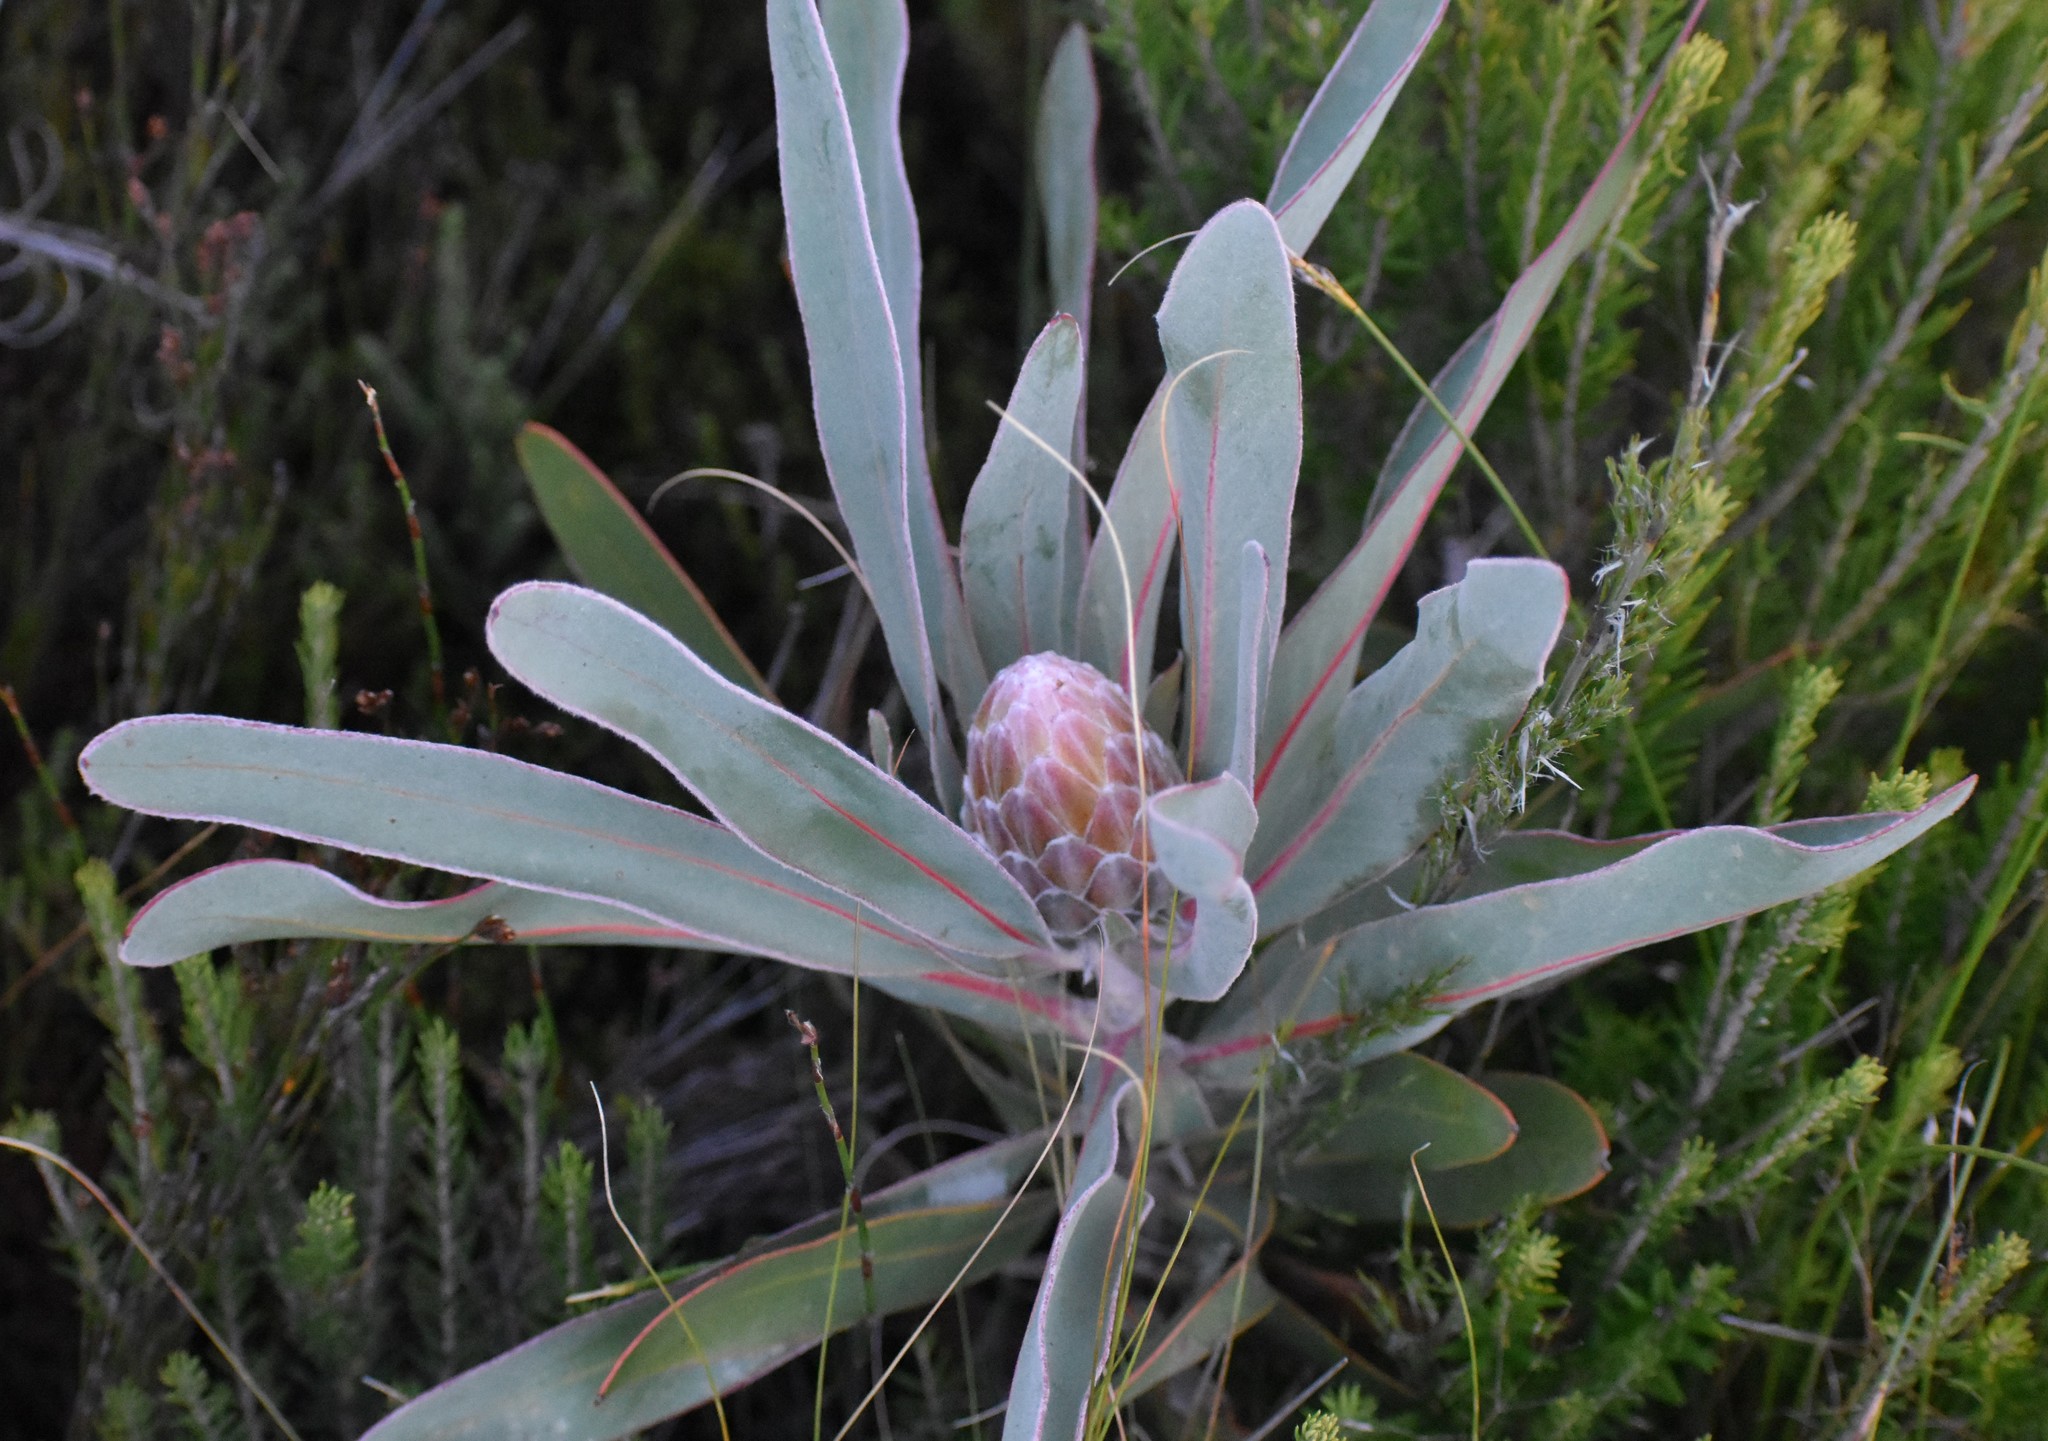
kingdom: Plantae
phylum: Tracheophyta
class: Magnoliopsida
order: Proteales
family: Proteaceae
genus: Protea
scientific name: Protea lorifolia
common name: Strap-leaved protea
